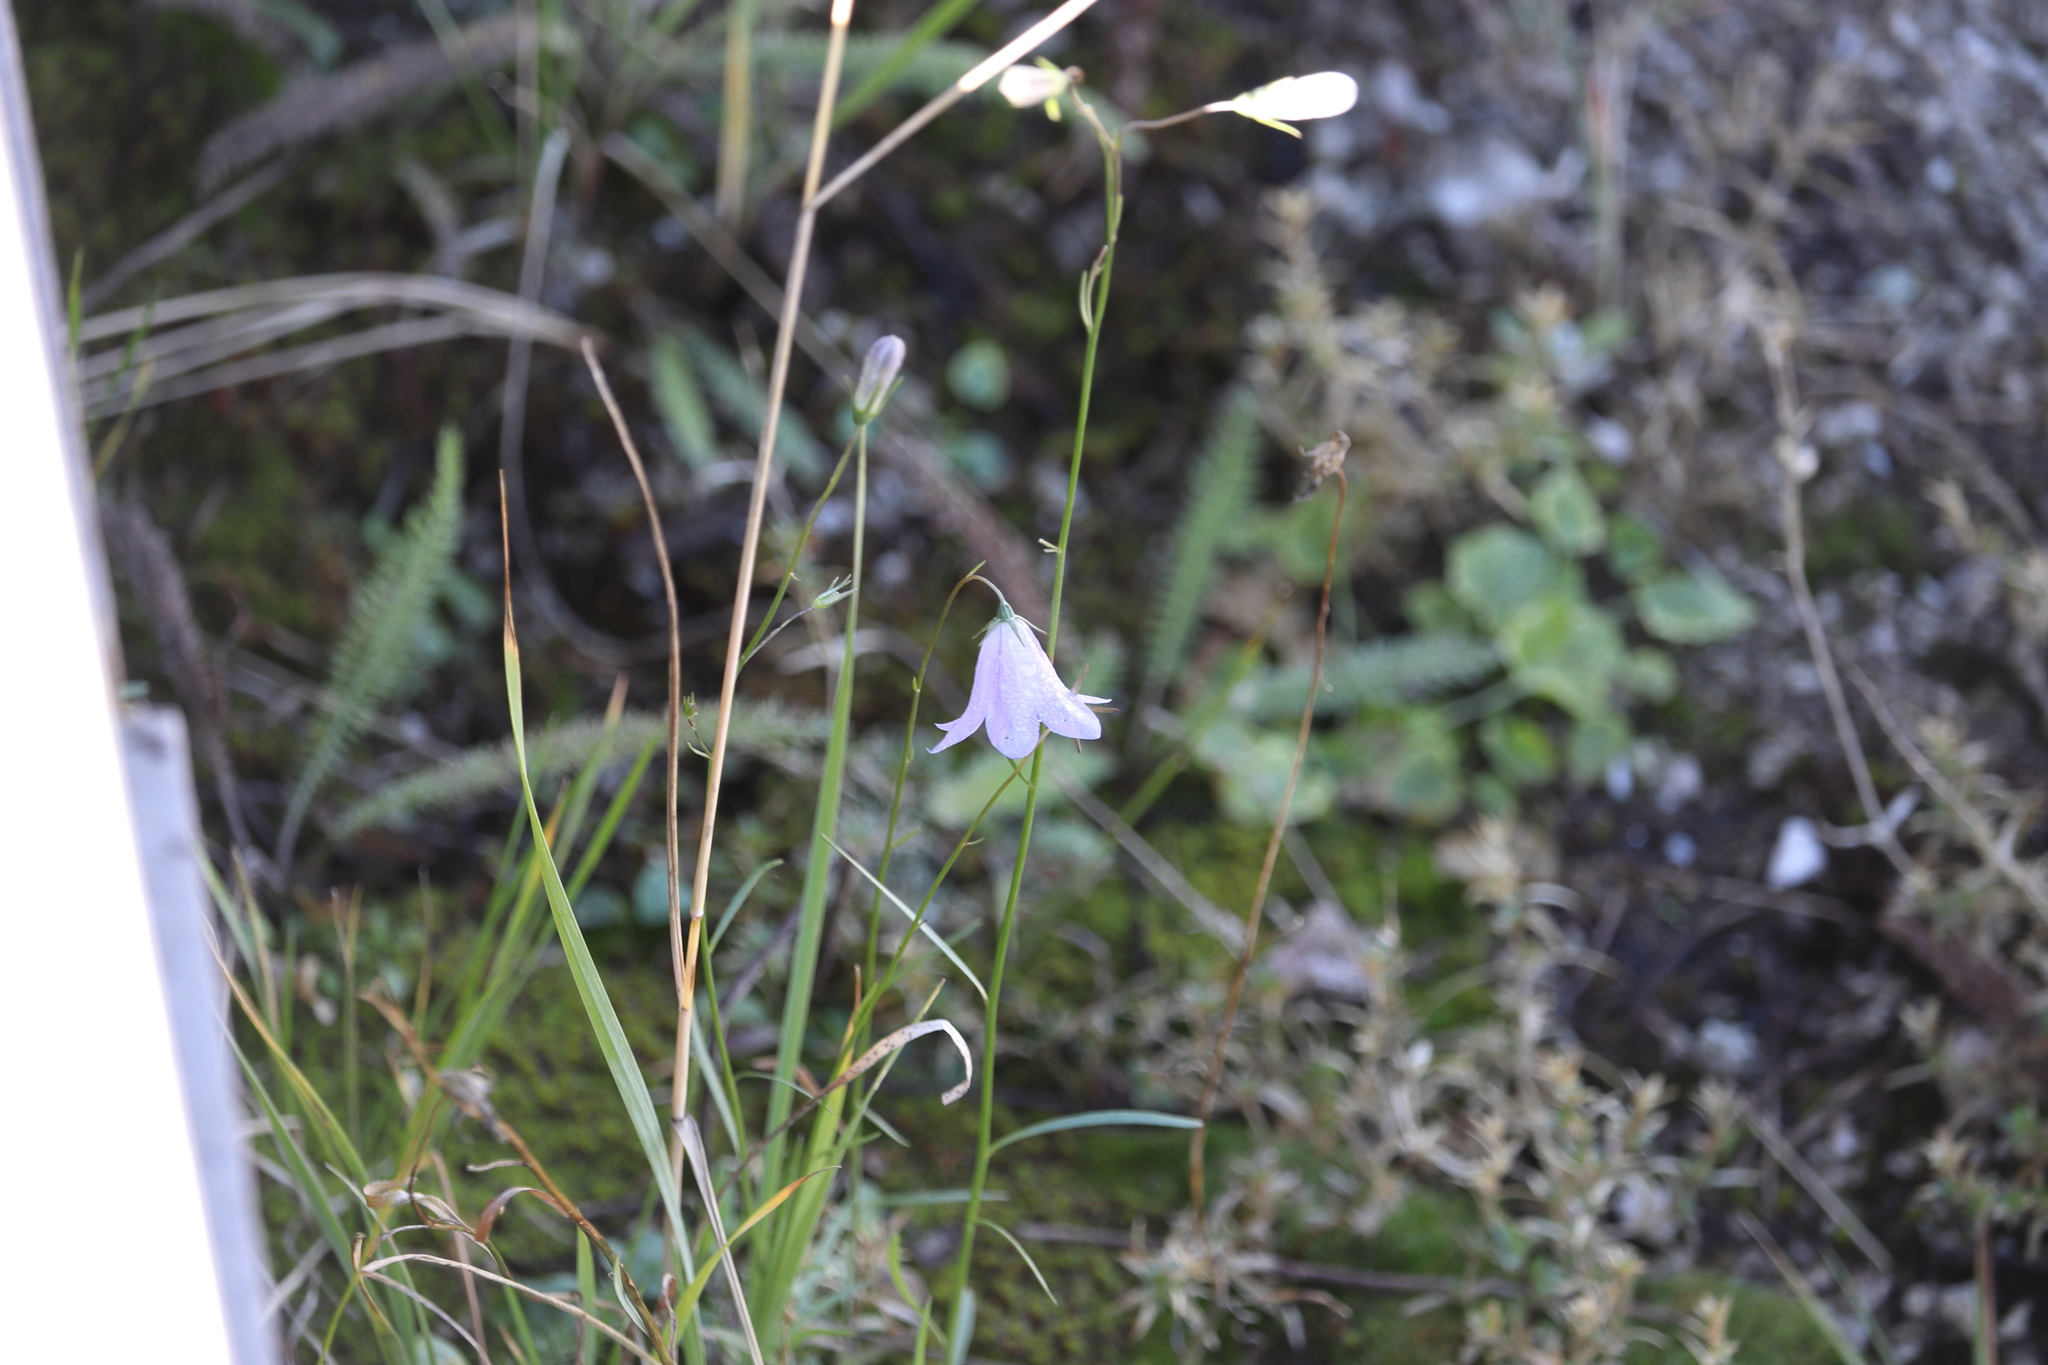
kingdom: Plantae
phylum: Tracheophyta
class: Magnoliopsida
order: Asterales
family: Campanulaceae
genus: Campanula
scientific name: Campanula petiolata
